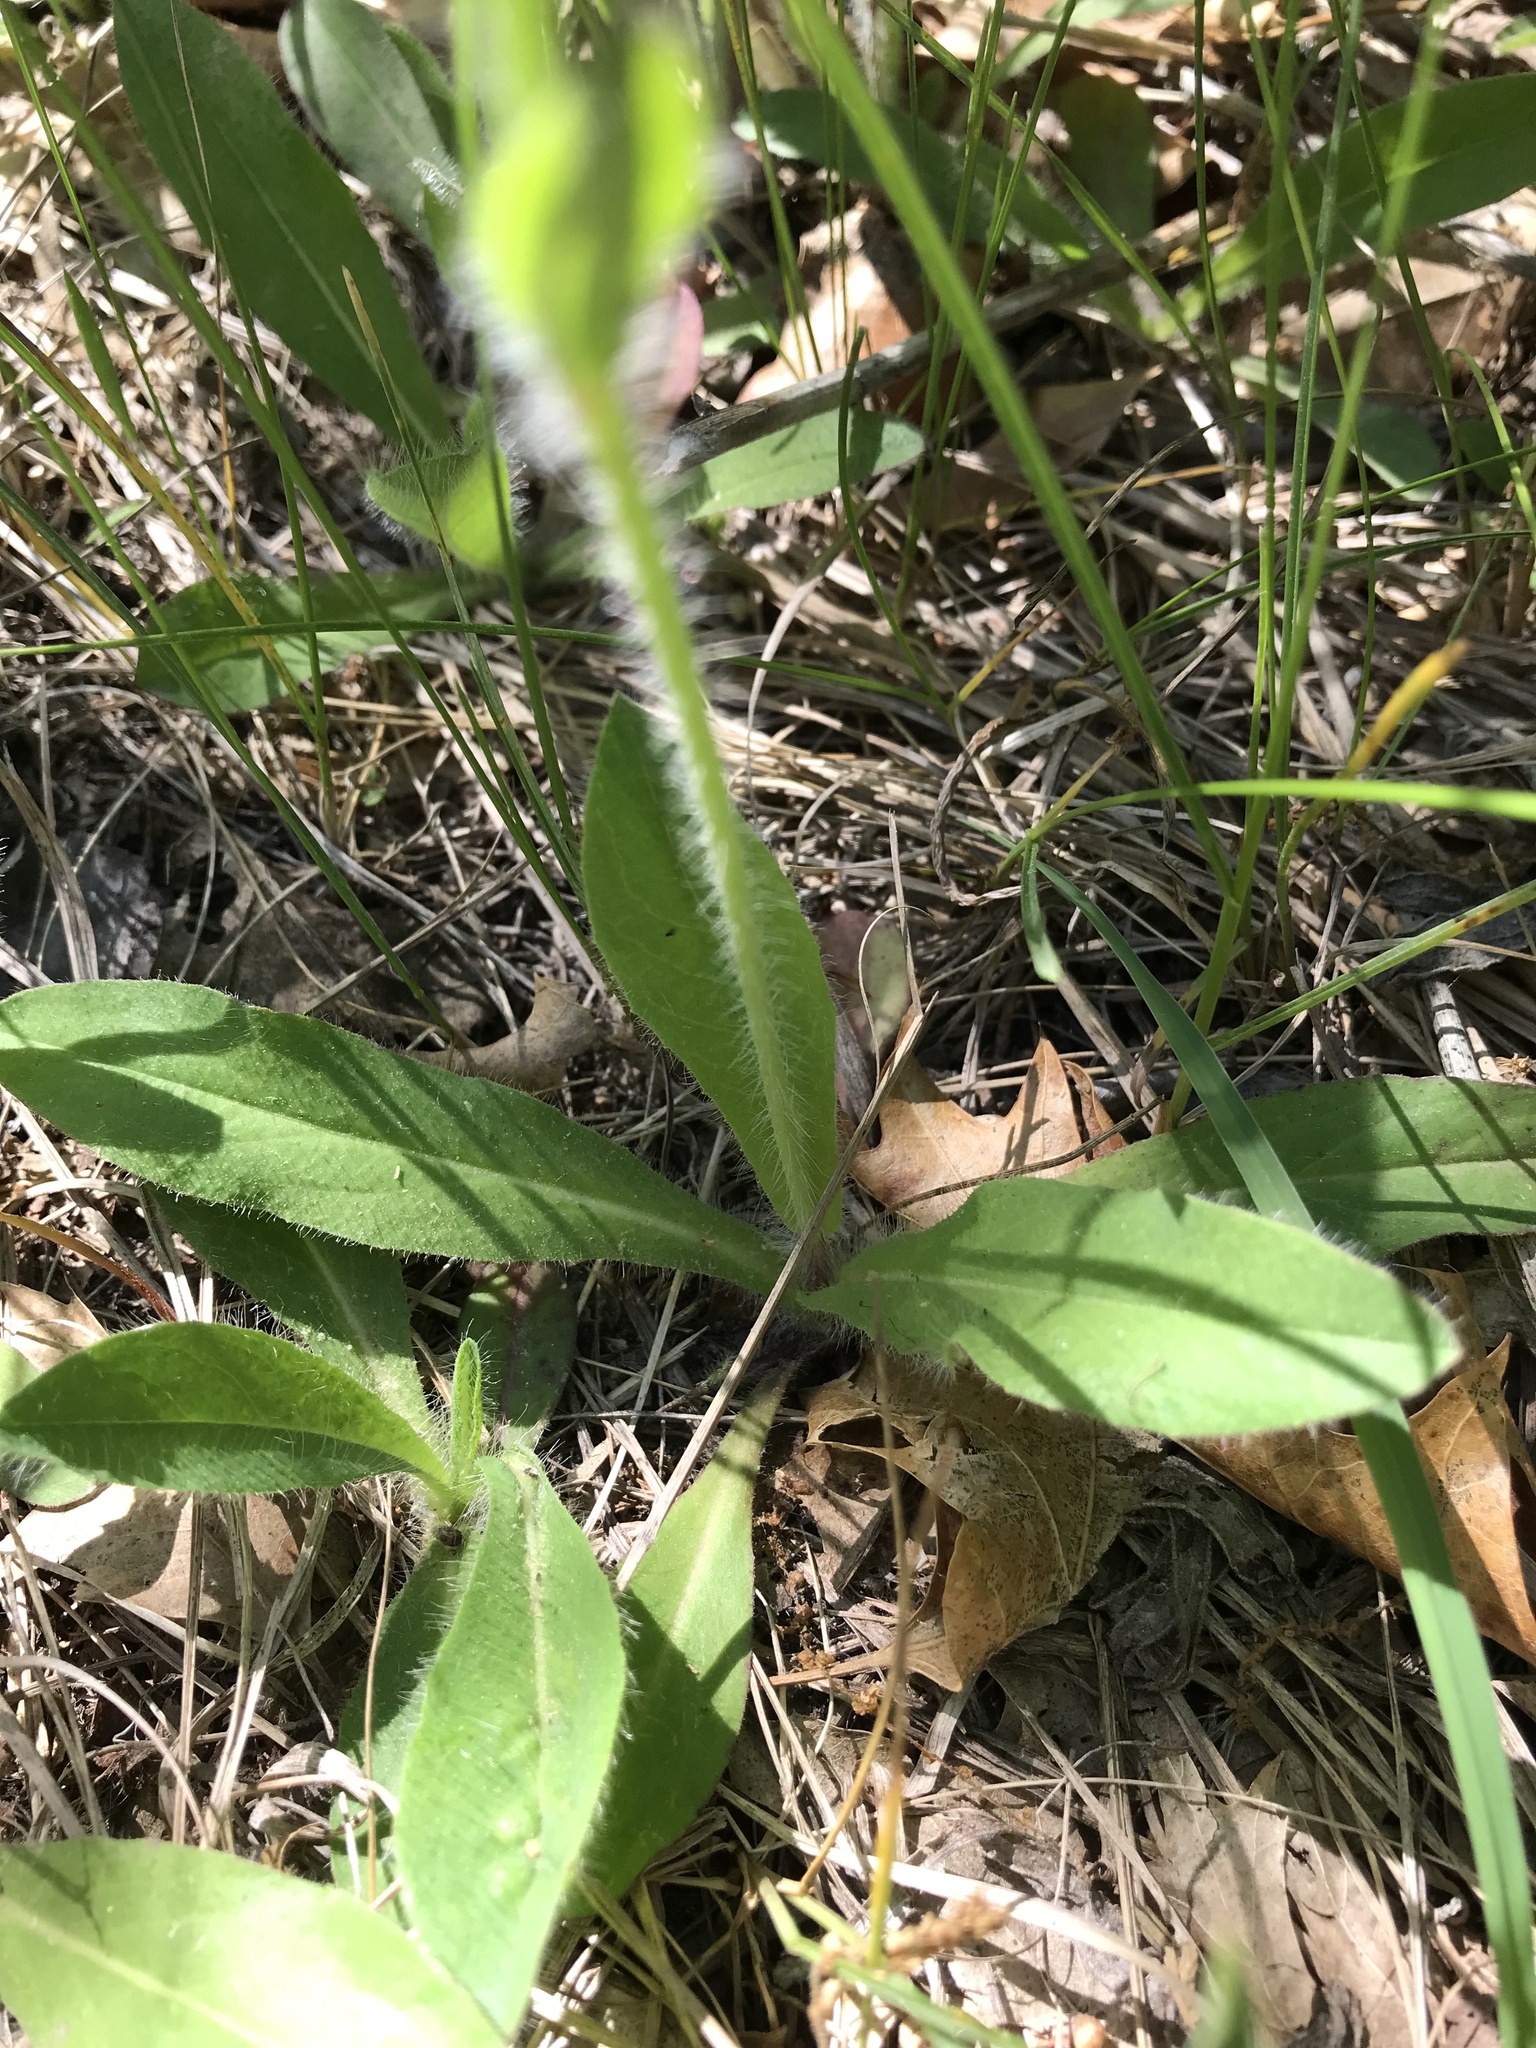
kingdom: Plantae
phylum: Tracheophyta
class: Magnoliopsida
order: Asterales
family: Asteraceae
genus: Pilosella
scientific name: Pilosella aurantiaca
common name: Fox-and-cubs
